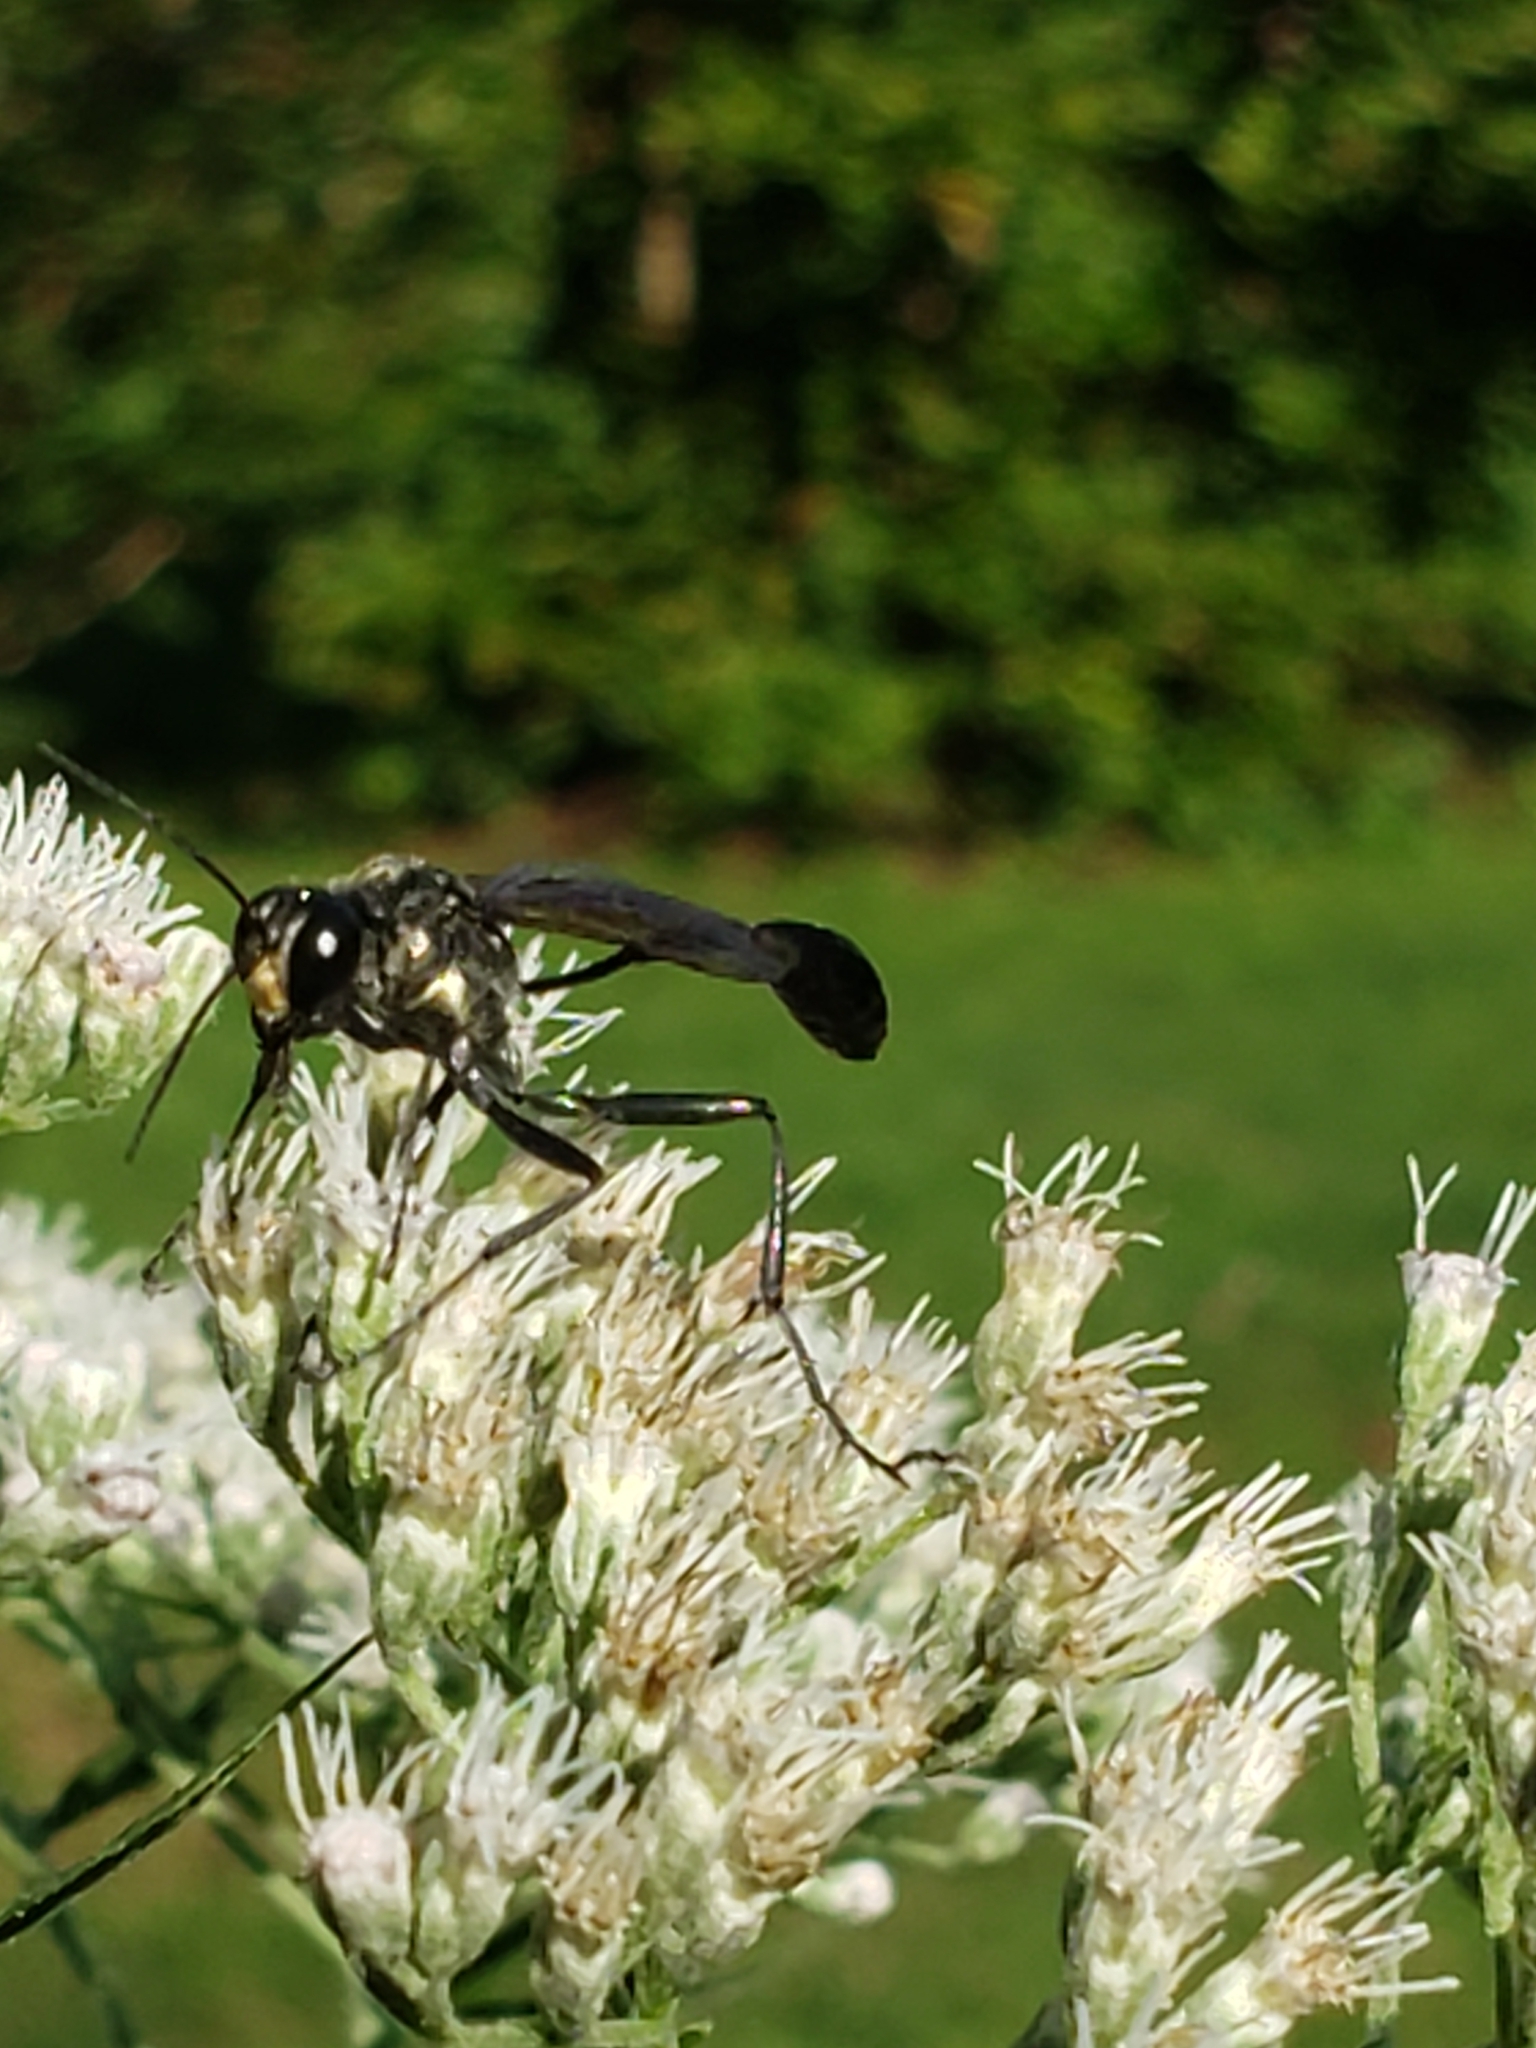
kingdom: Animalia
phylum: Arthropoda
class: Insecta
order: Hymenoptera
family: Sphecidae
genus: Eremnophila
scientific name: Eremnophila aureonotata
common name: Gold-marked thread-waisted wasp
